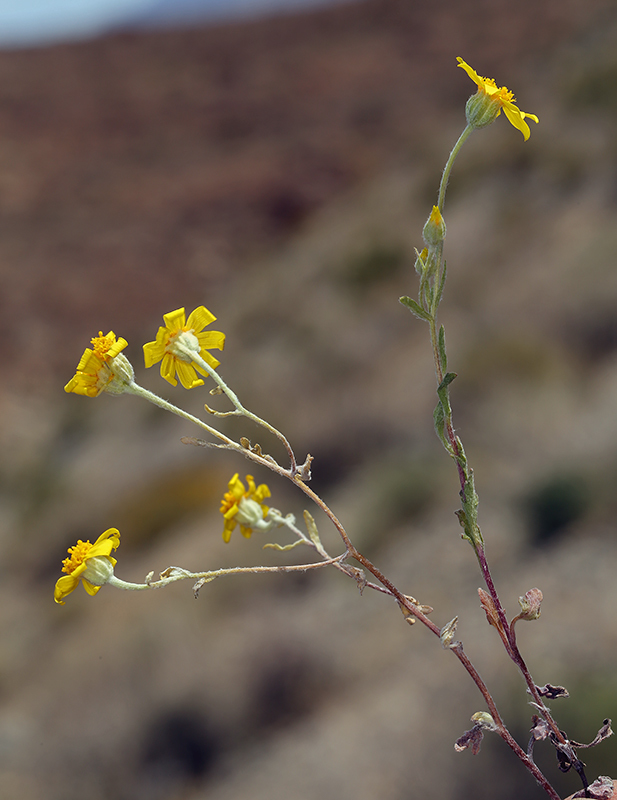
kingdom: Plantae
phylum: Tracheophyta
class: Magnoliopsida
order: Asterales
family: Asteraceae
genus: Eriophyllum
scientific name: Eriophyllum ambiguum
